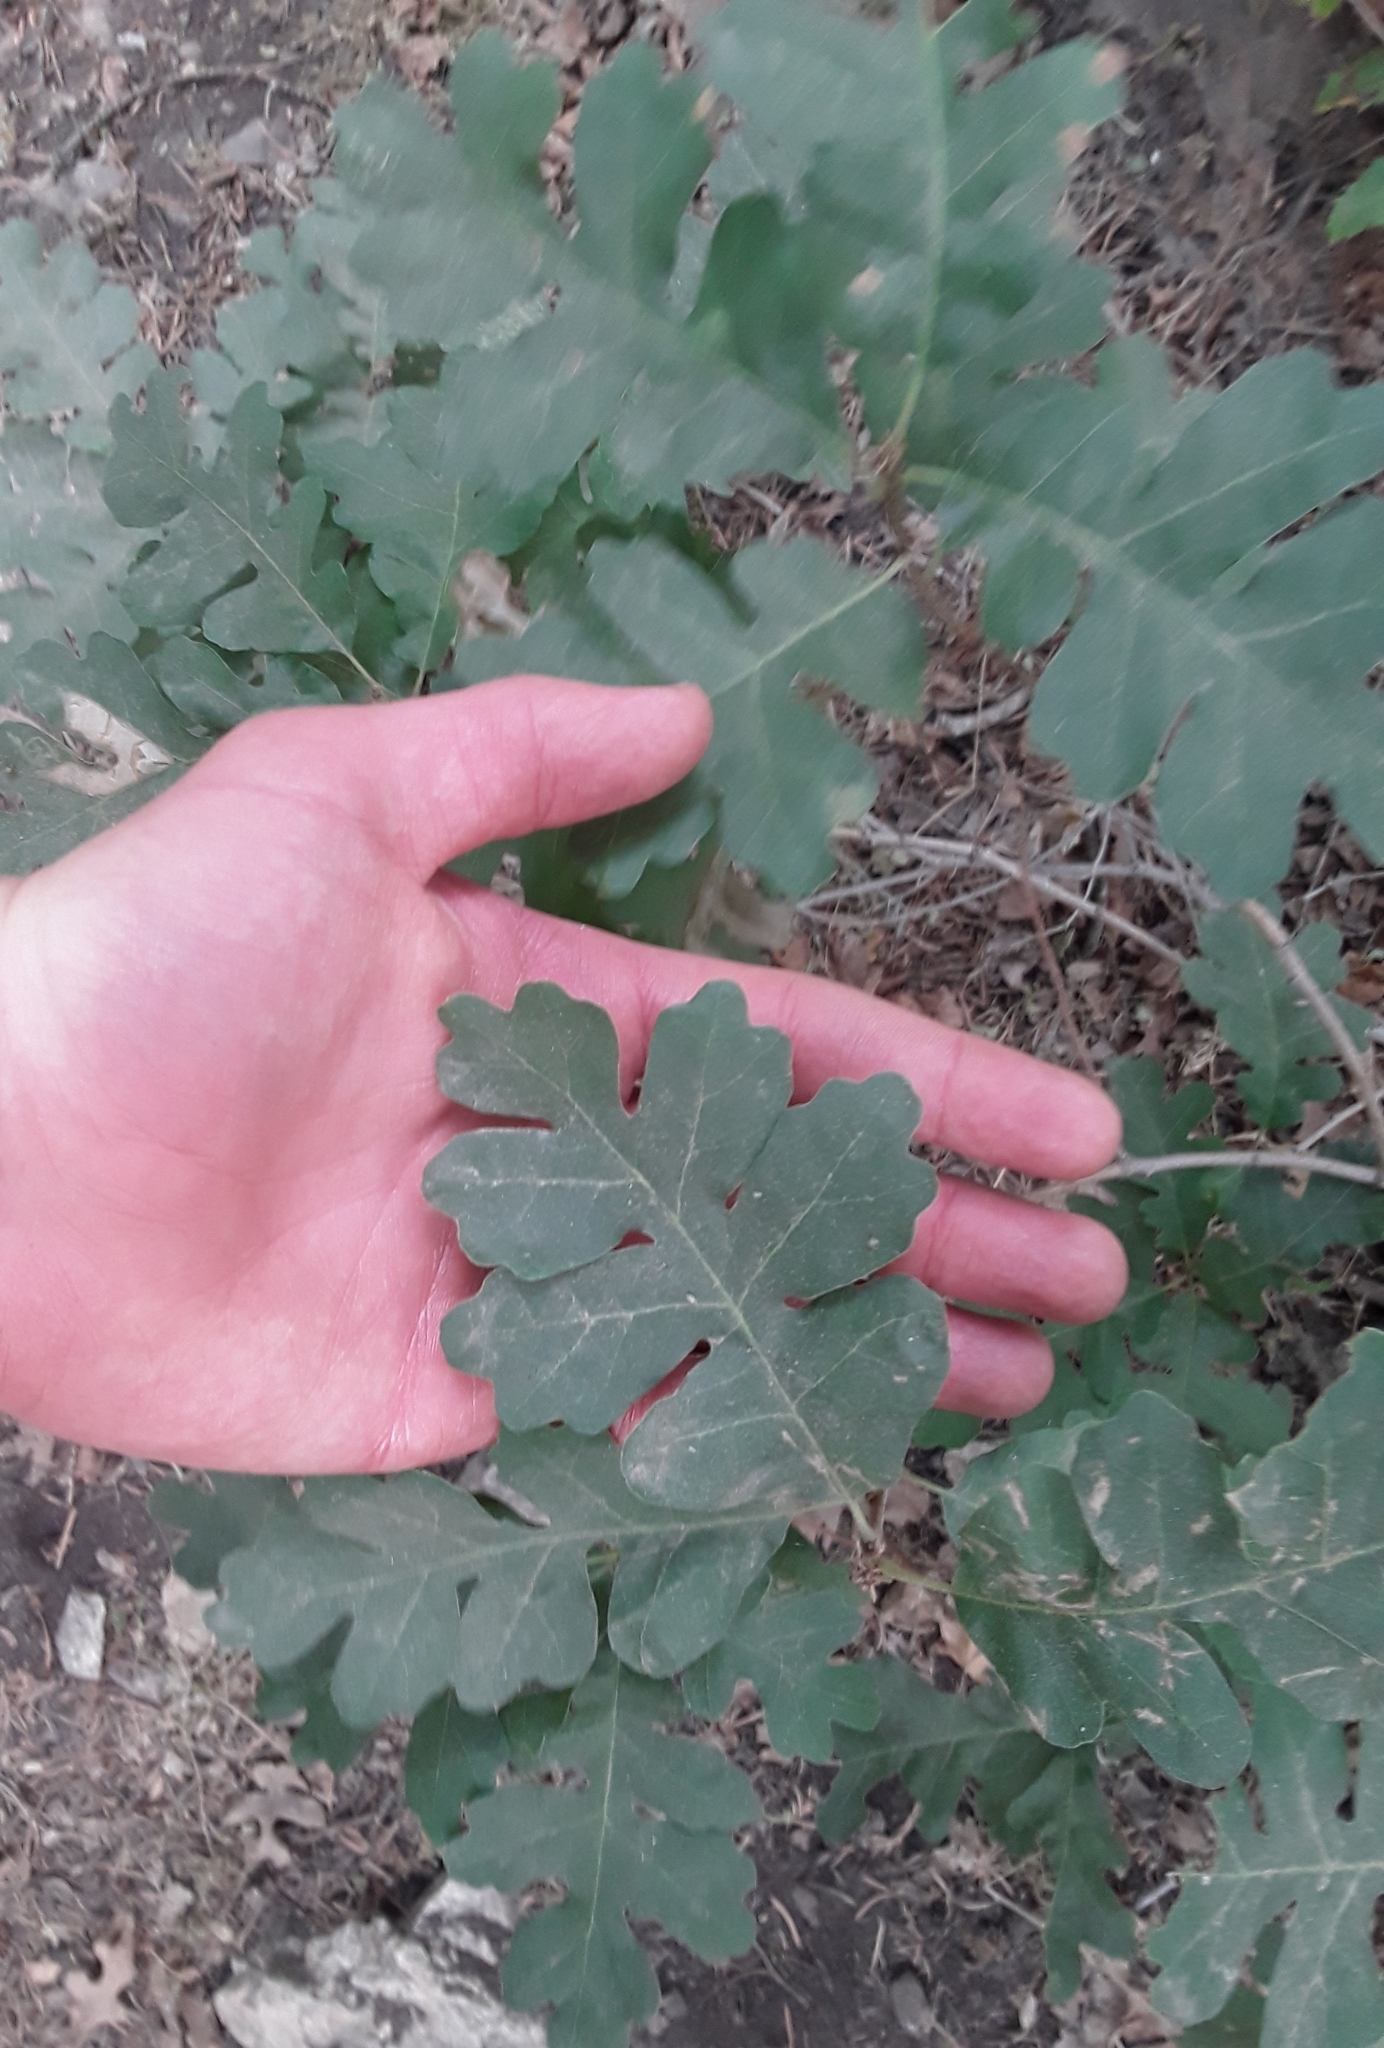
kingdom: Plantae
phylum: Tracheophyta
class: Magnoliopsida
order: Fagales
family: Fagaceae
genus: Quercus
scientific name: Quercus gambelii
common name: Gambel oak
